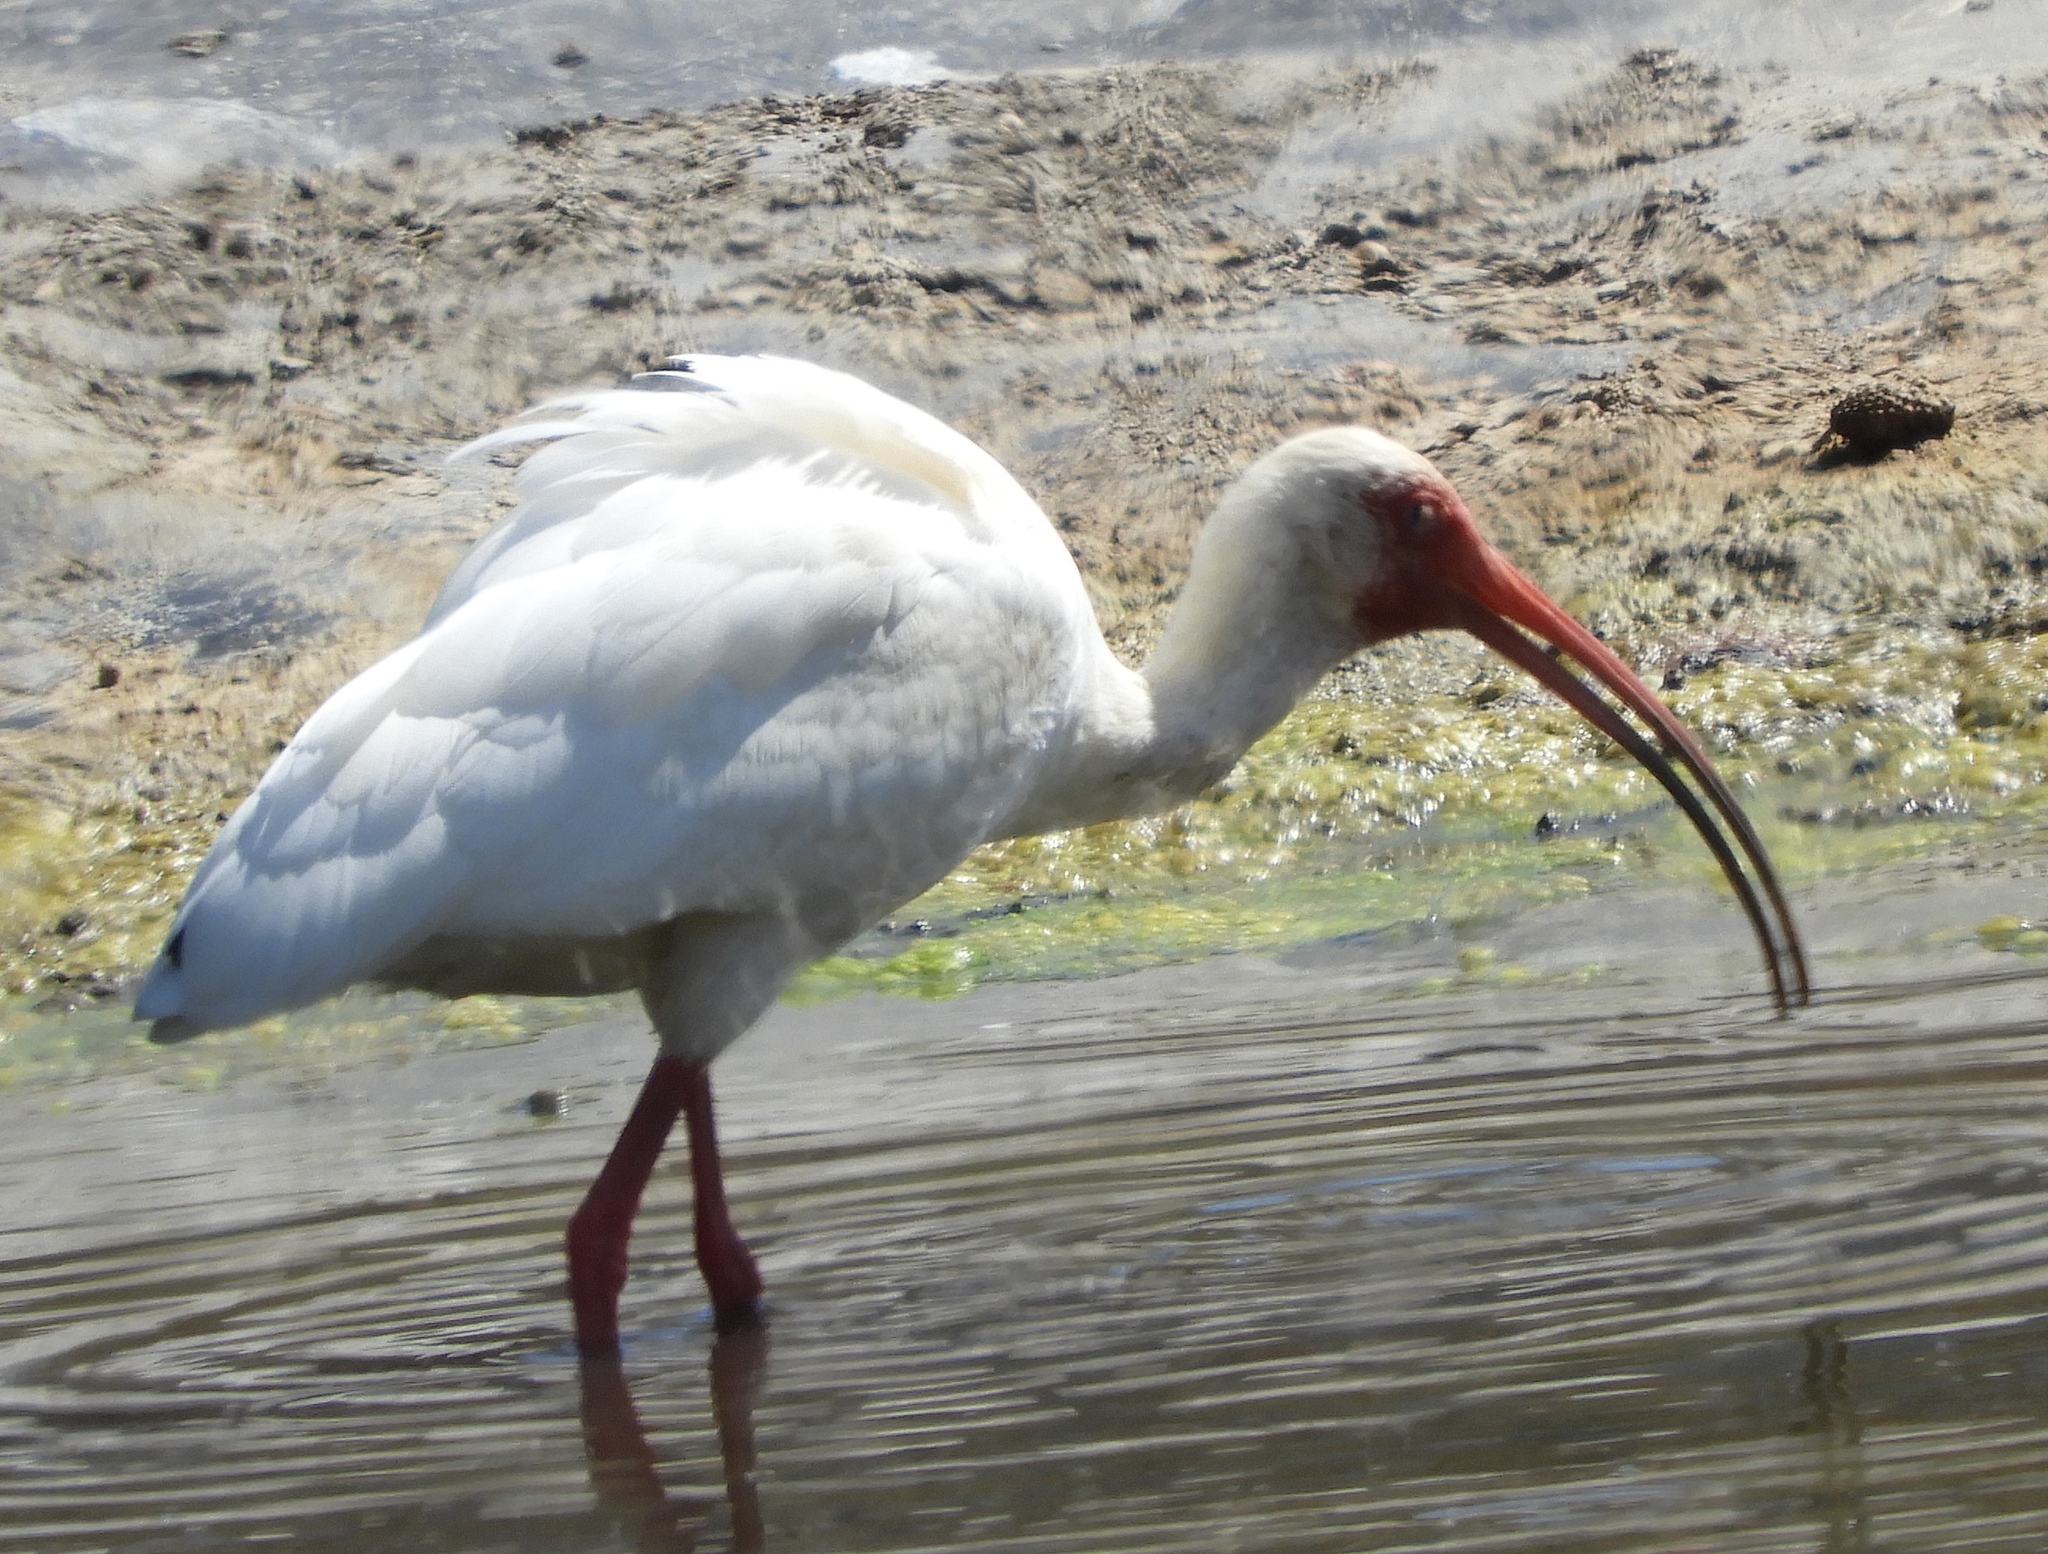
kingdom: Animalia
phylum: Chordata
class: Aves
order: Pelecaniformes
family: Threskiornithidae
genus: Eudocimus
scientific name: Eudocimus albus
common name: White ibis
